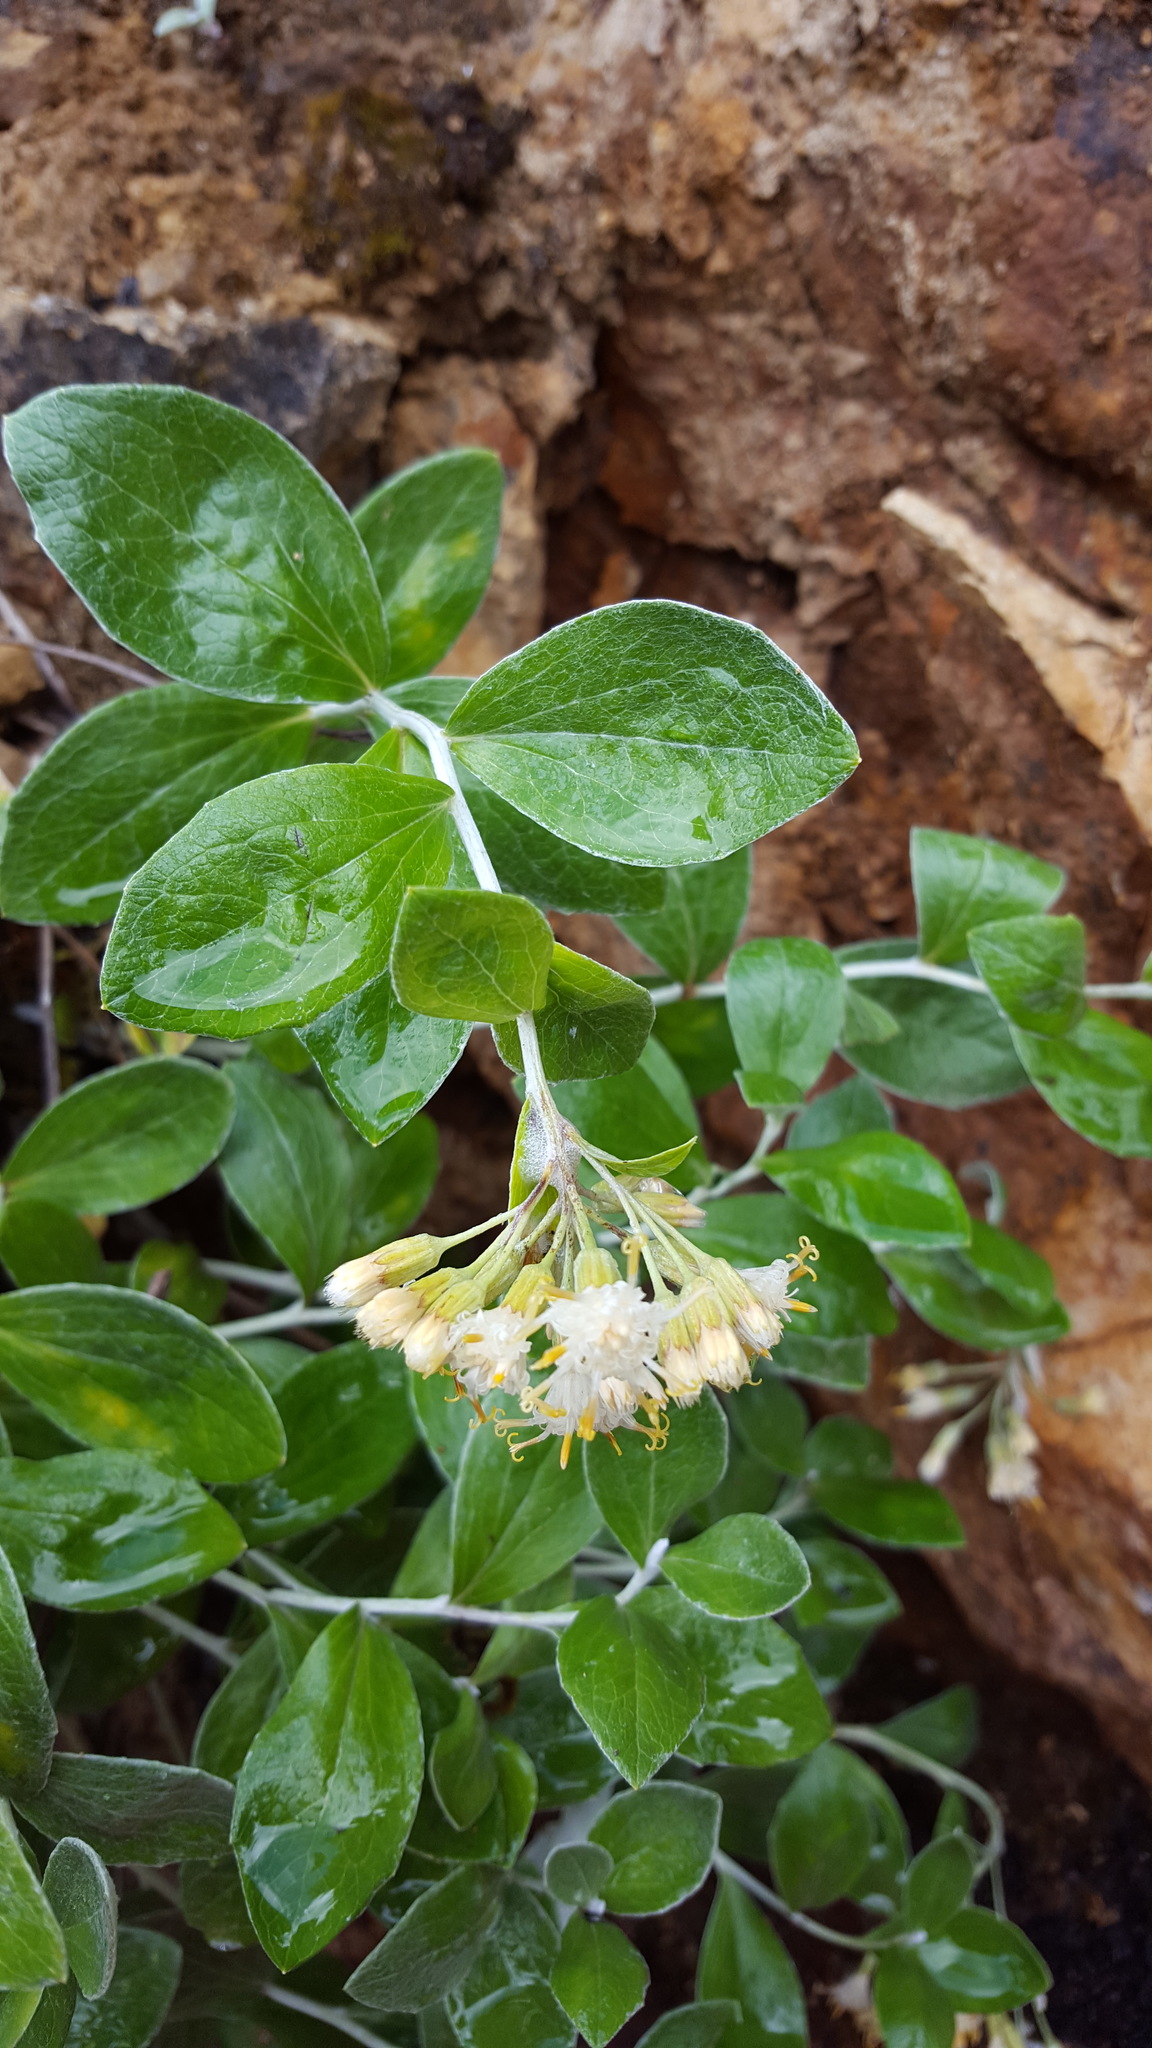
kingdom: Plantae
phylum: Tracheophyta
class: Magnoliopsida
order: Asterales
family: Asteraceae
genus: Luina
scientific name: Luina hypoleuca
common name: Little-leaved luina
